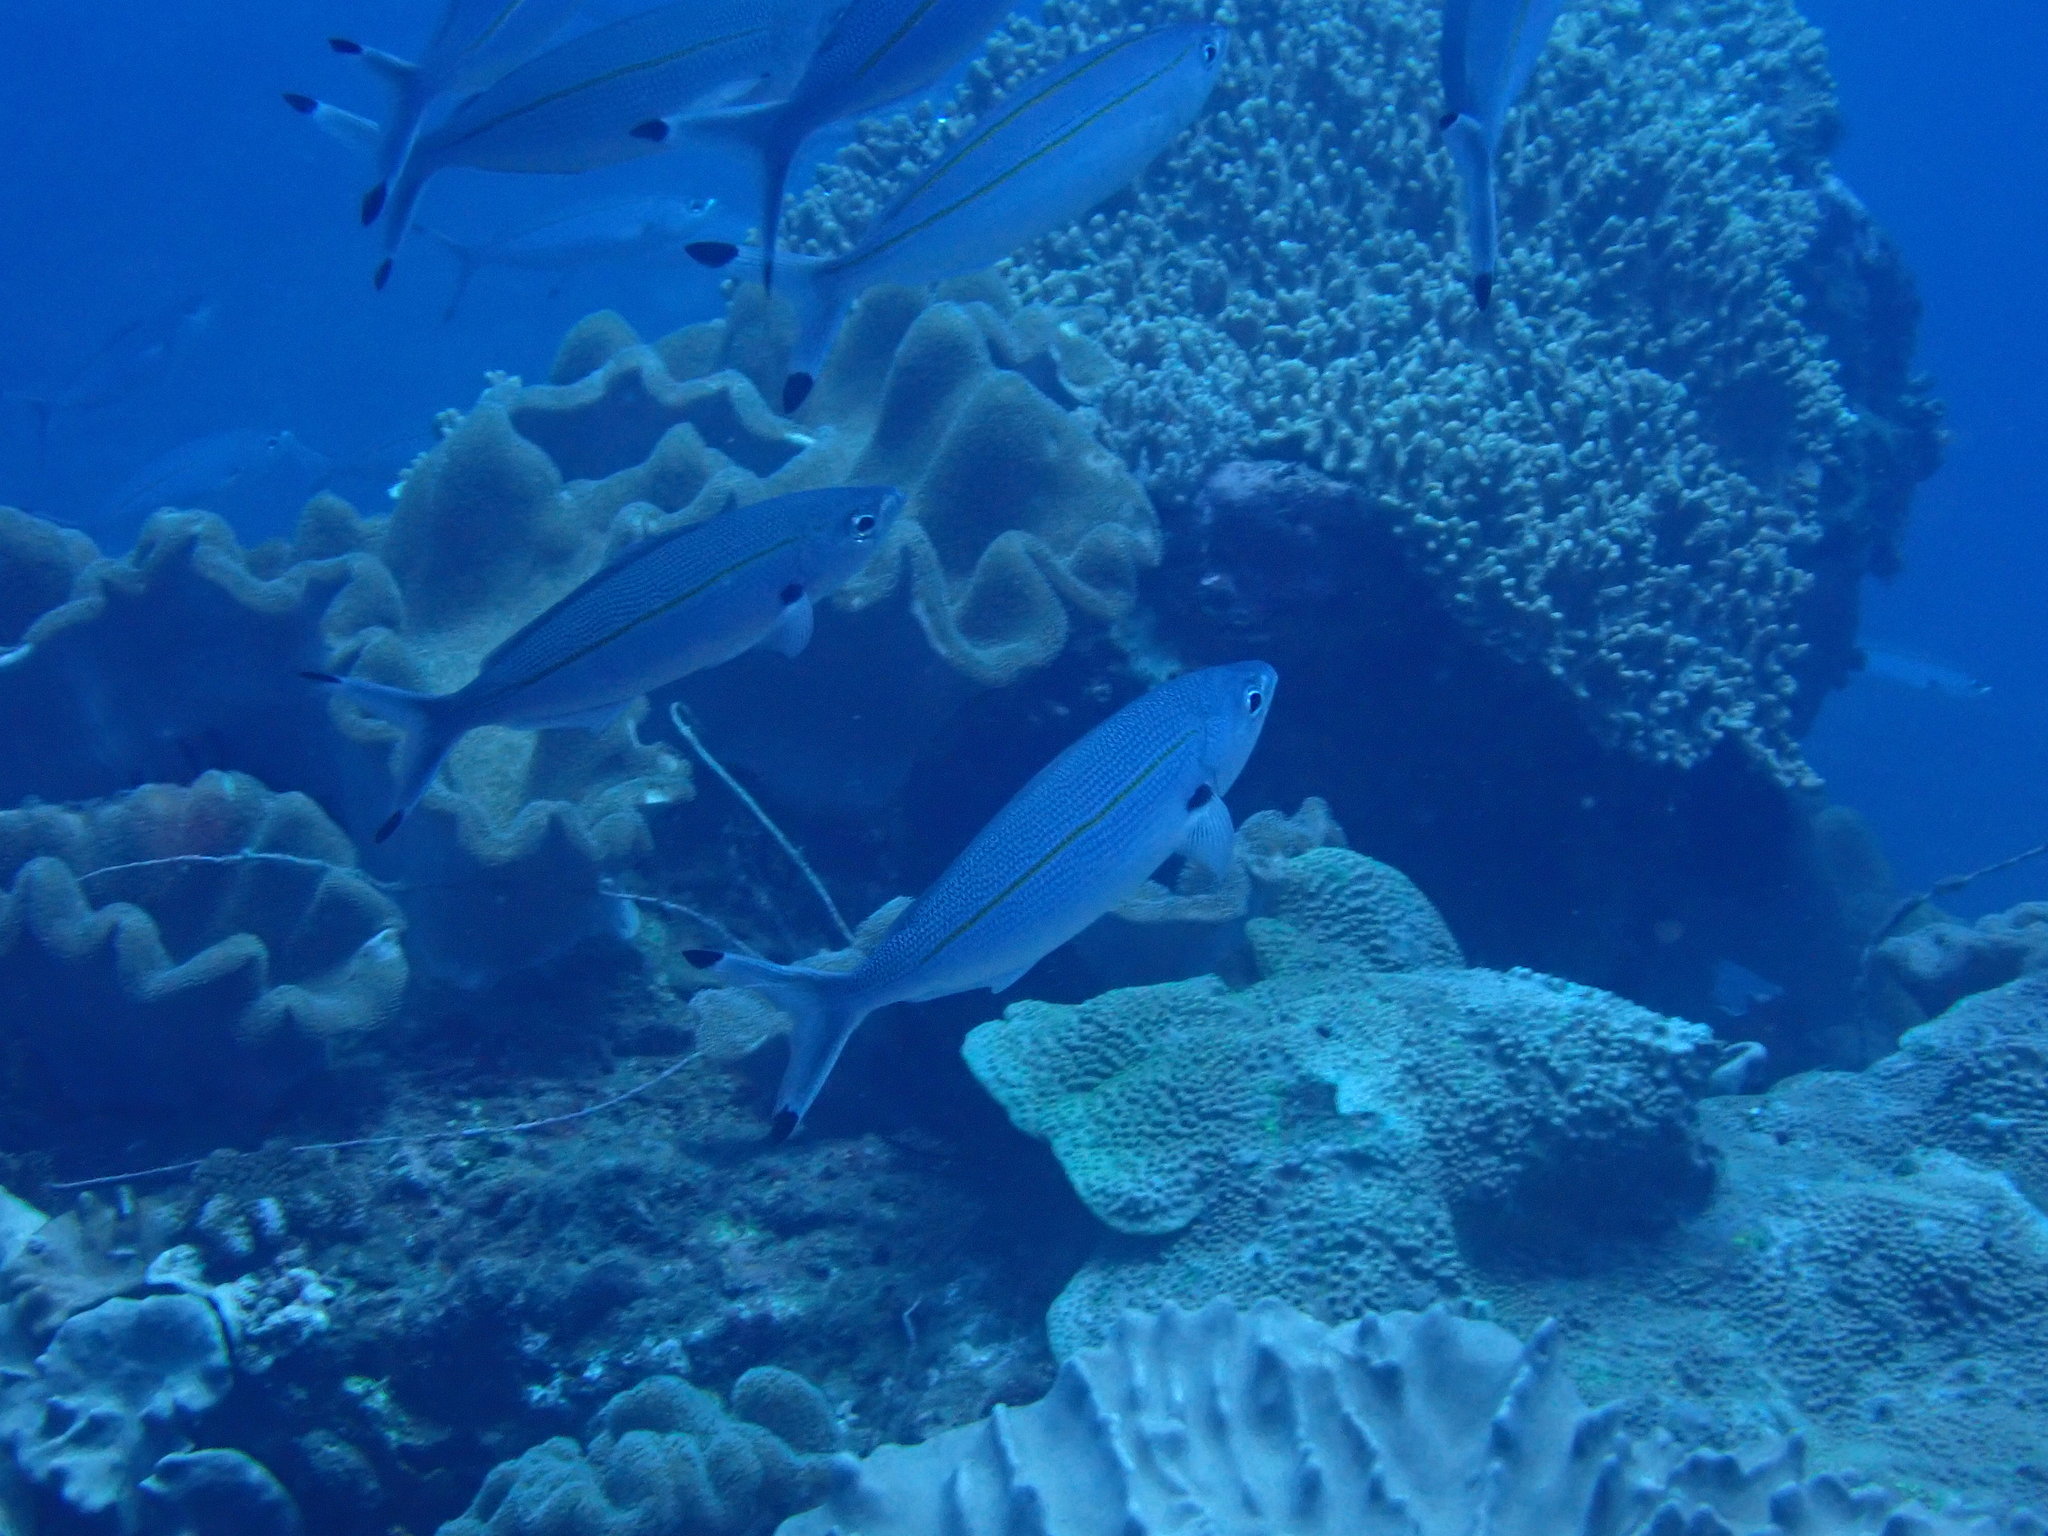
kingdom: Animalia
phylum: Chordata
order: Perciformes
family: Caesionidae
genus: Pterocaesio
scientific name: Pterocaesio digramma
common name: Double-lined fusilier
